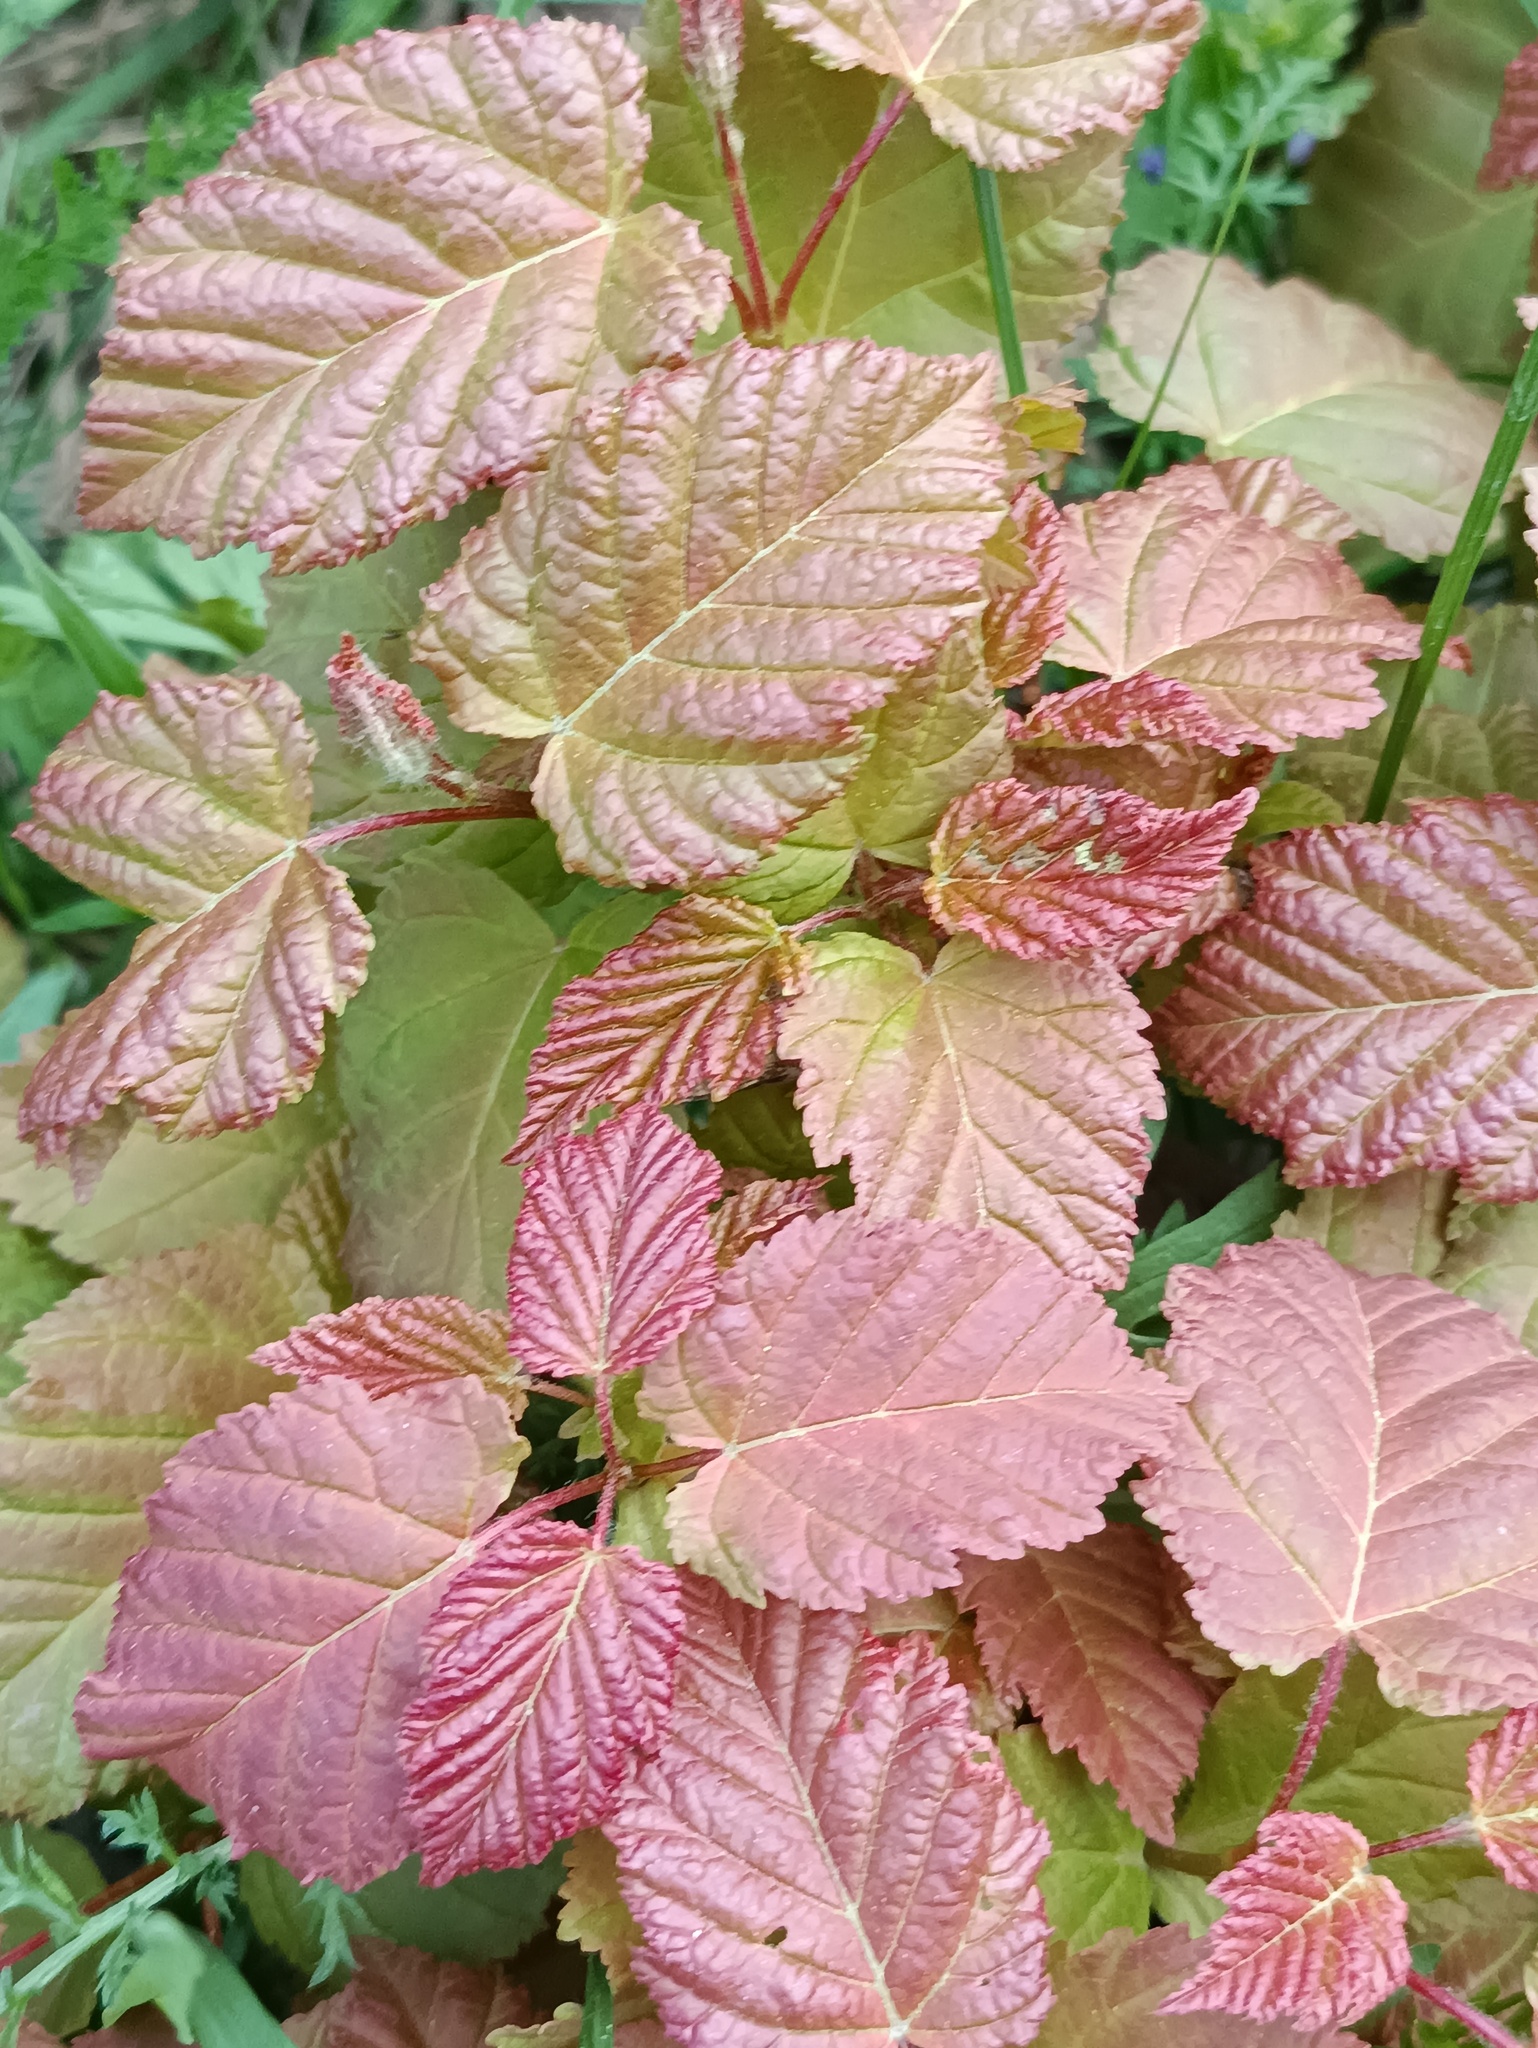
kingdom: Plantae
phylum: Tracheophyta
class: Magnoliopsida
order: Sapindales
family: Sapindaceae
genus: Acer
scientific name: Acer tataricum
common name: Tartar maple
